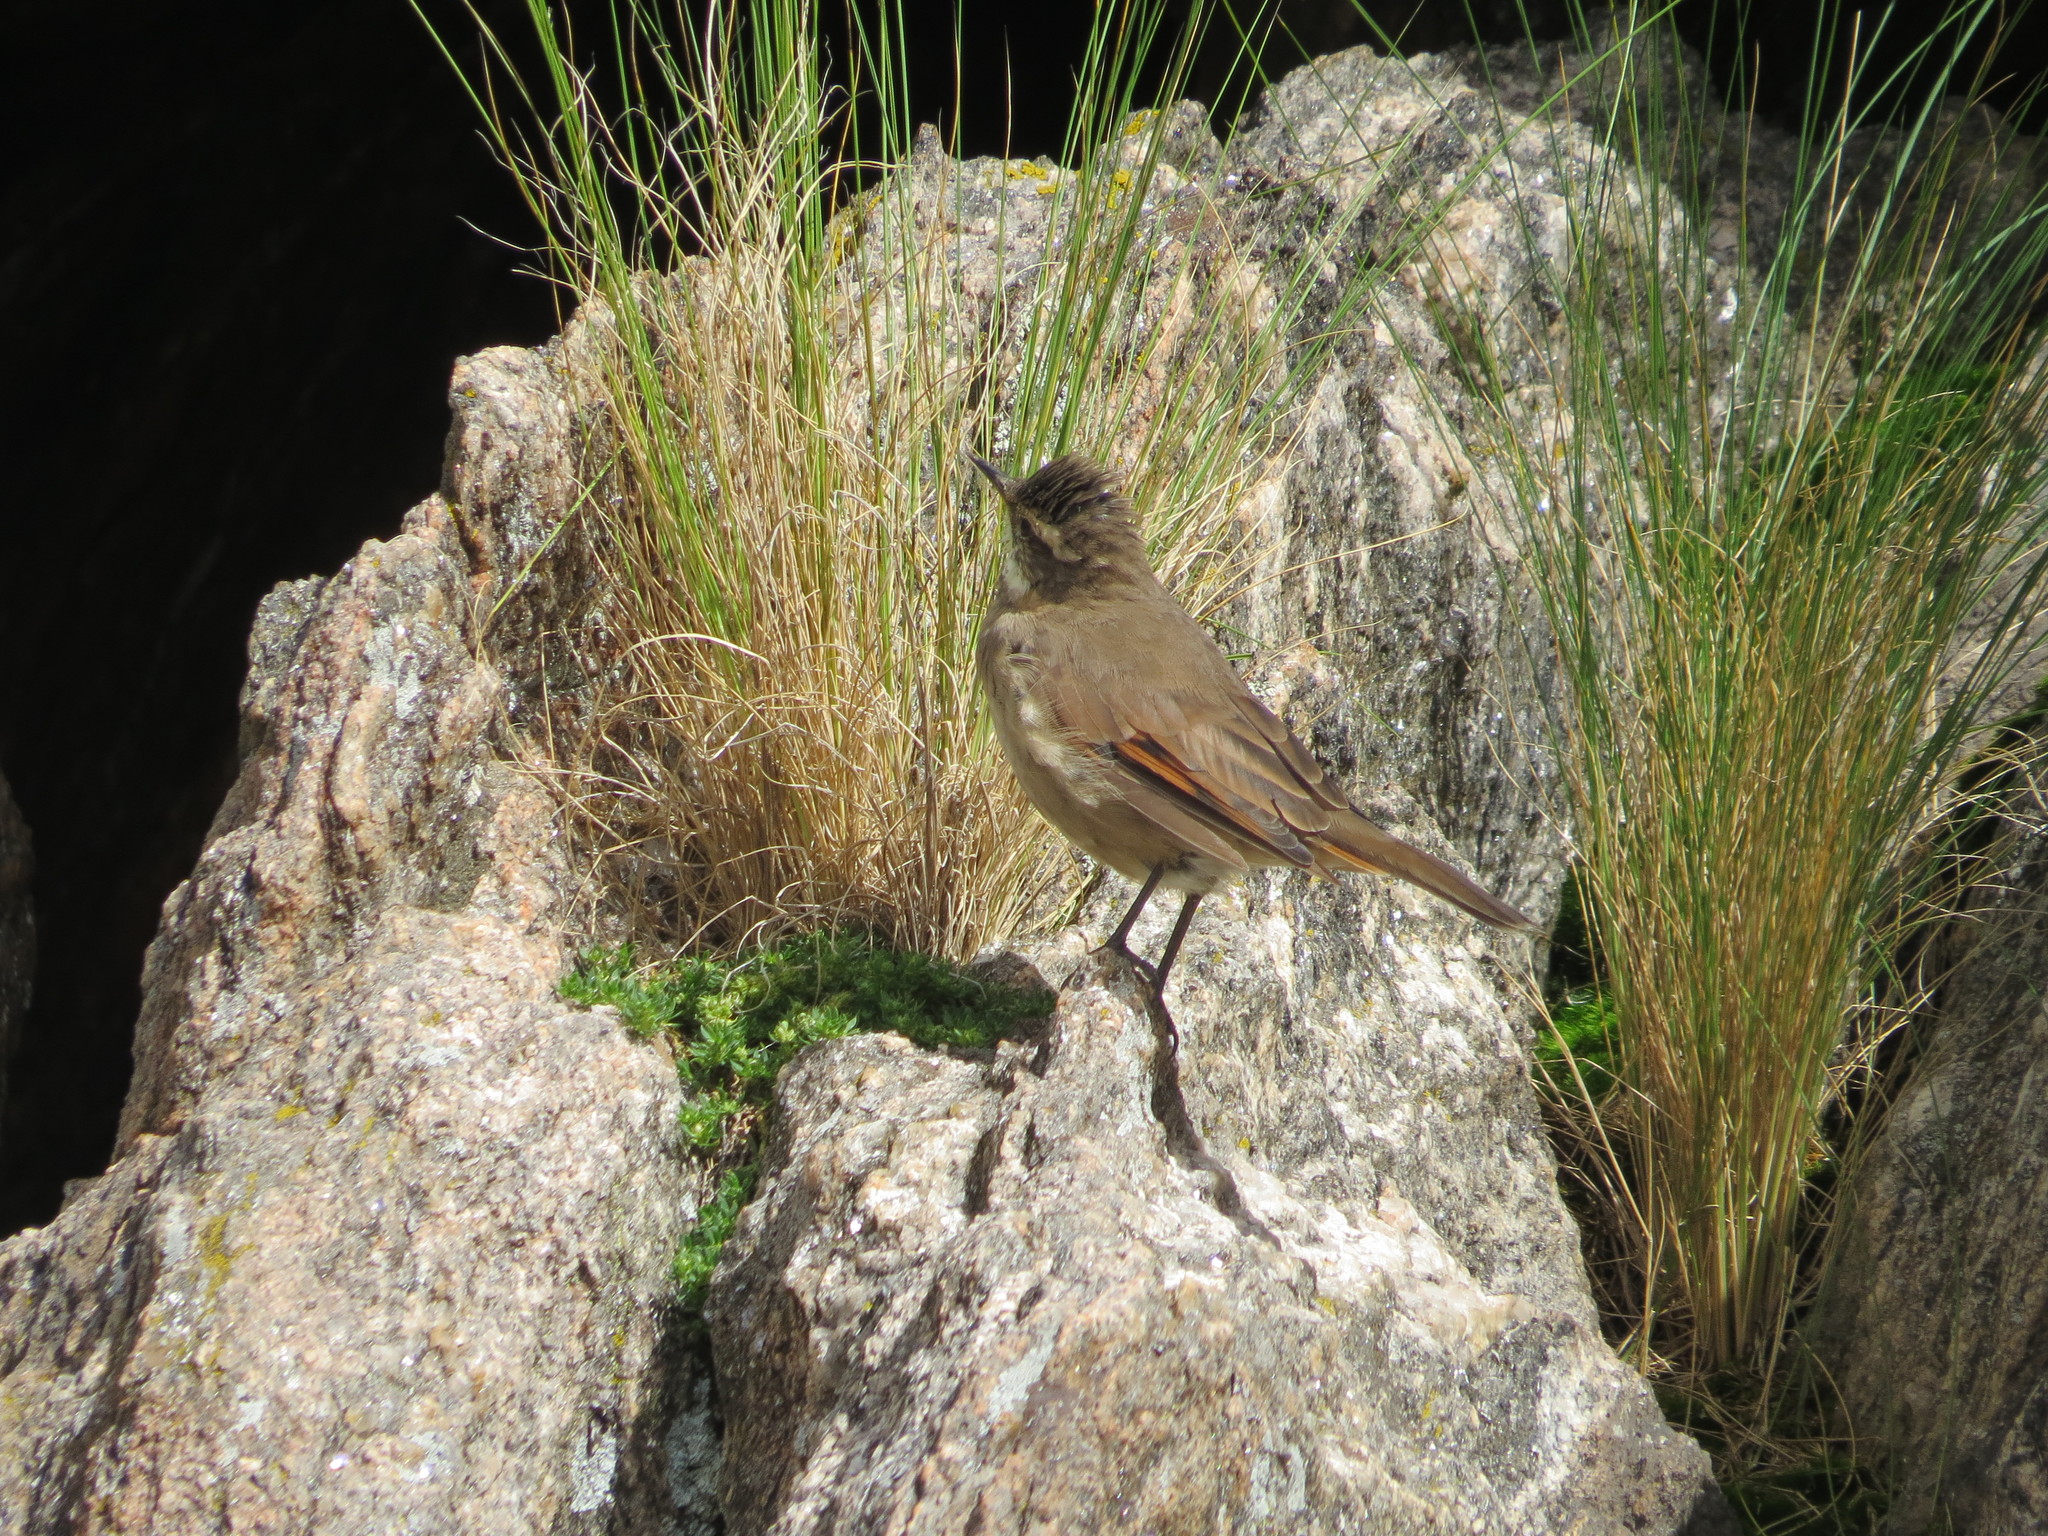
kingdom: Animalia
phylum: Chordata
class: Aves
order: Passeriformes
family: Furnariidae
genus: Cinclodes
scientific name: Cinclodes comechingonus
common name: Cordoba cinclodes
